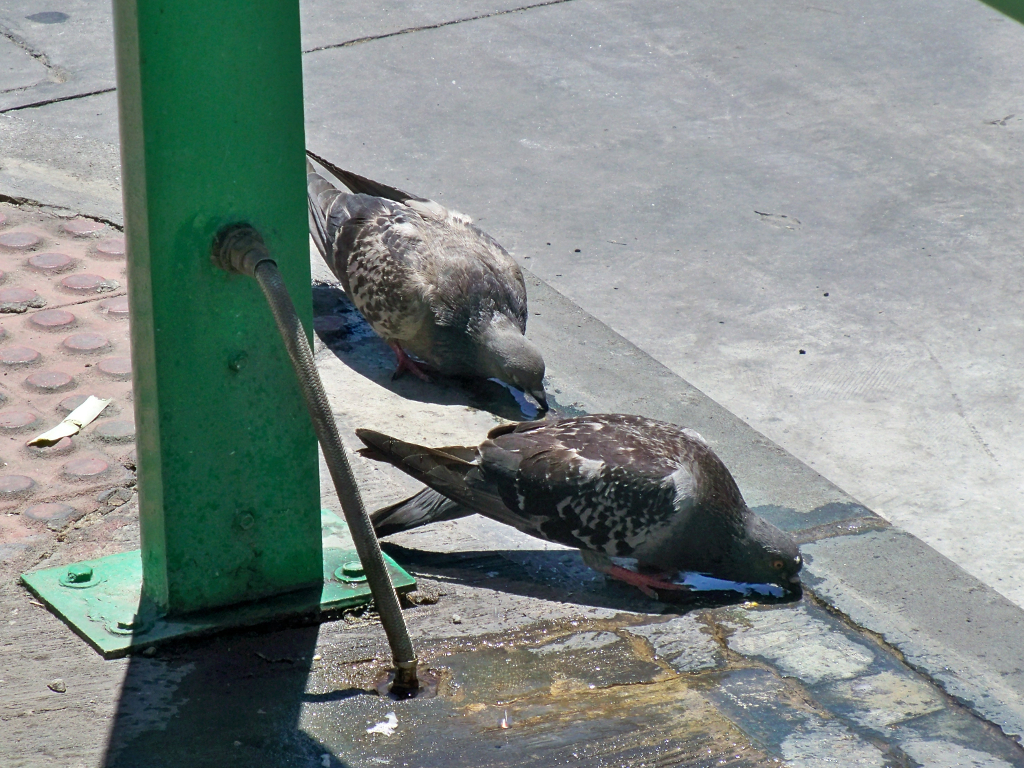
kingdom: Animalia
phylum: Chordata
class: Aves
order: Columbiformes
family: Columbidae
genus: Columba
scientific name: Columba livia
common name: Rock pigeon
